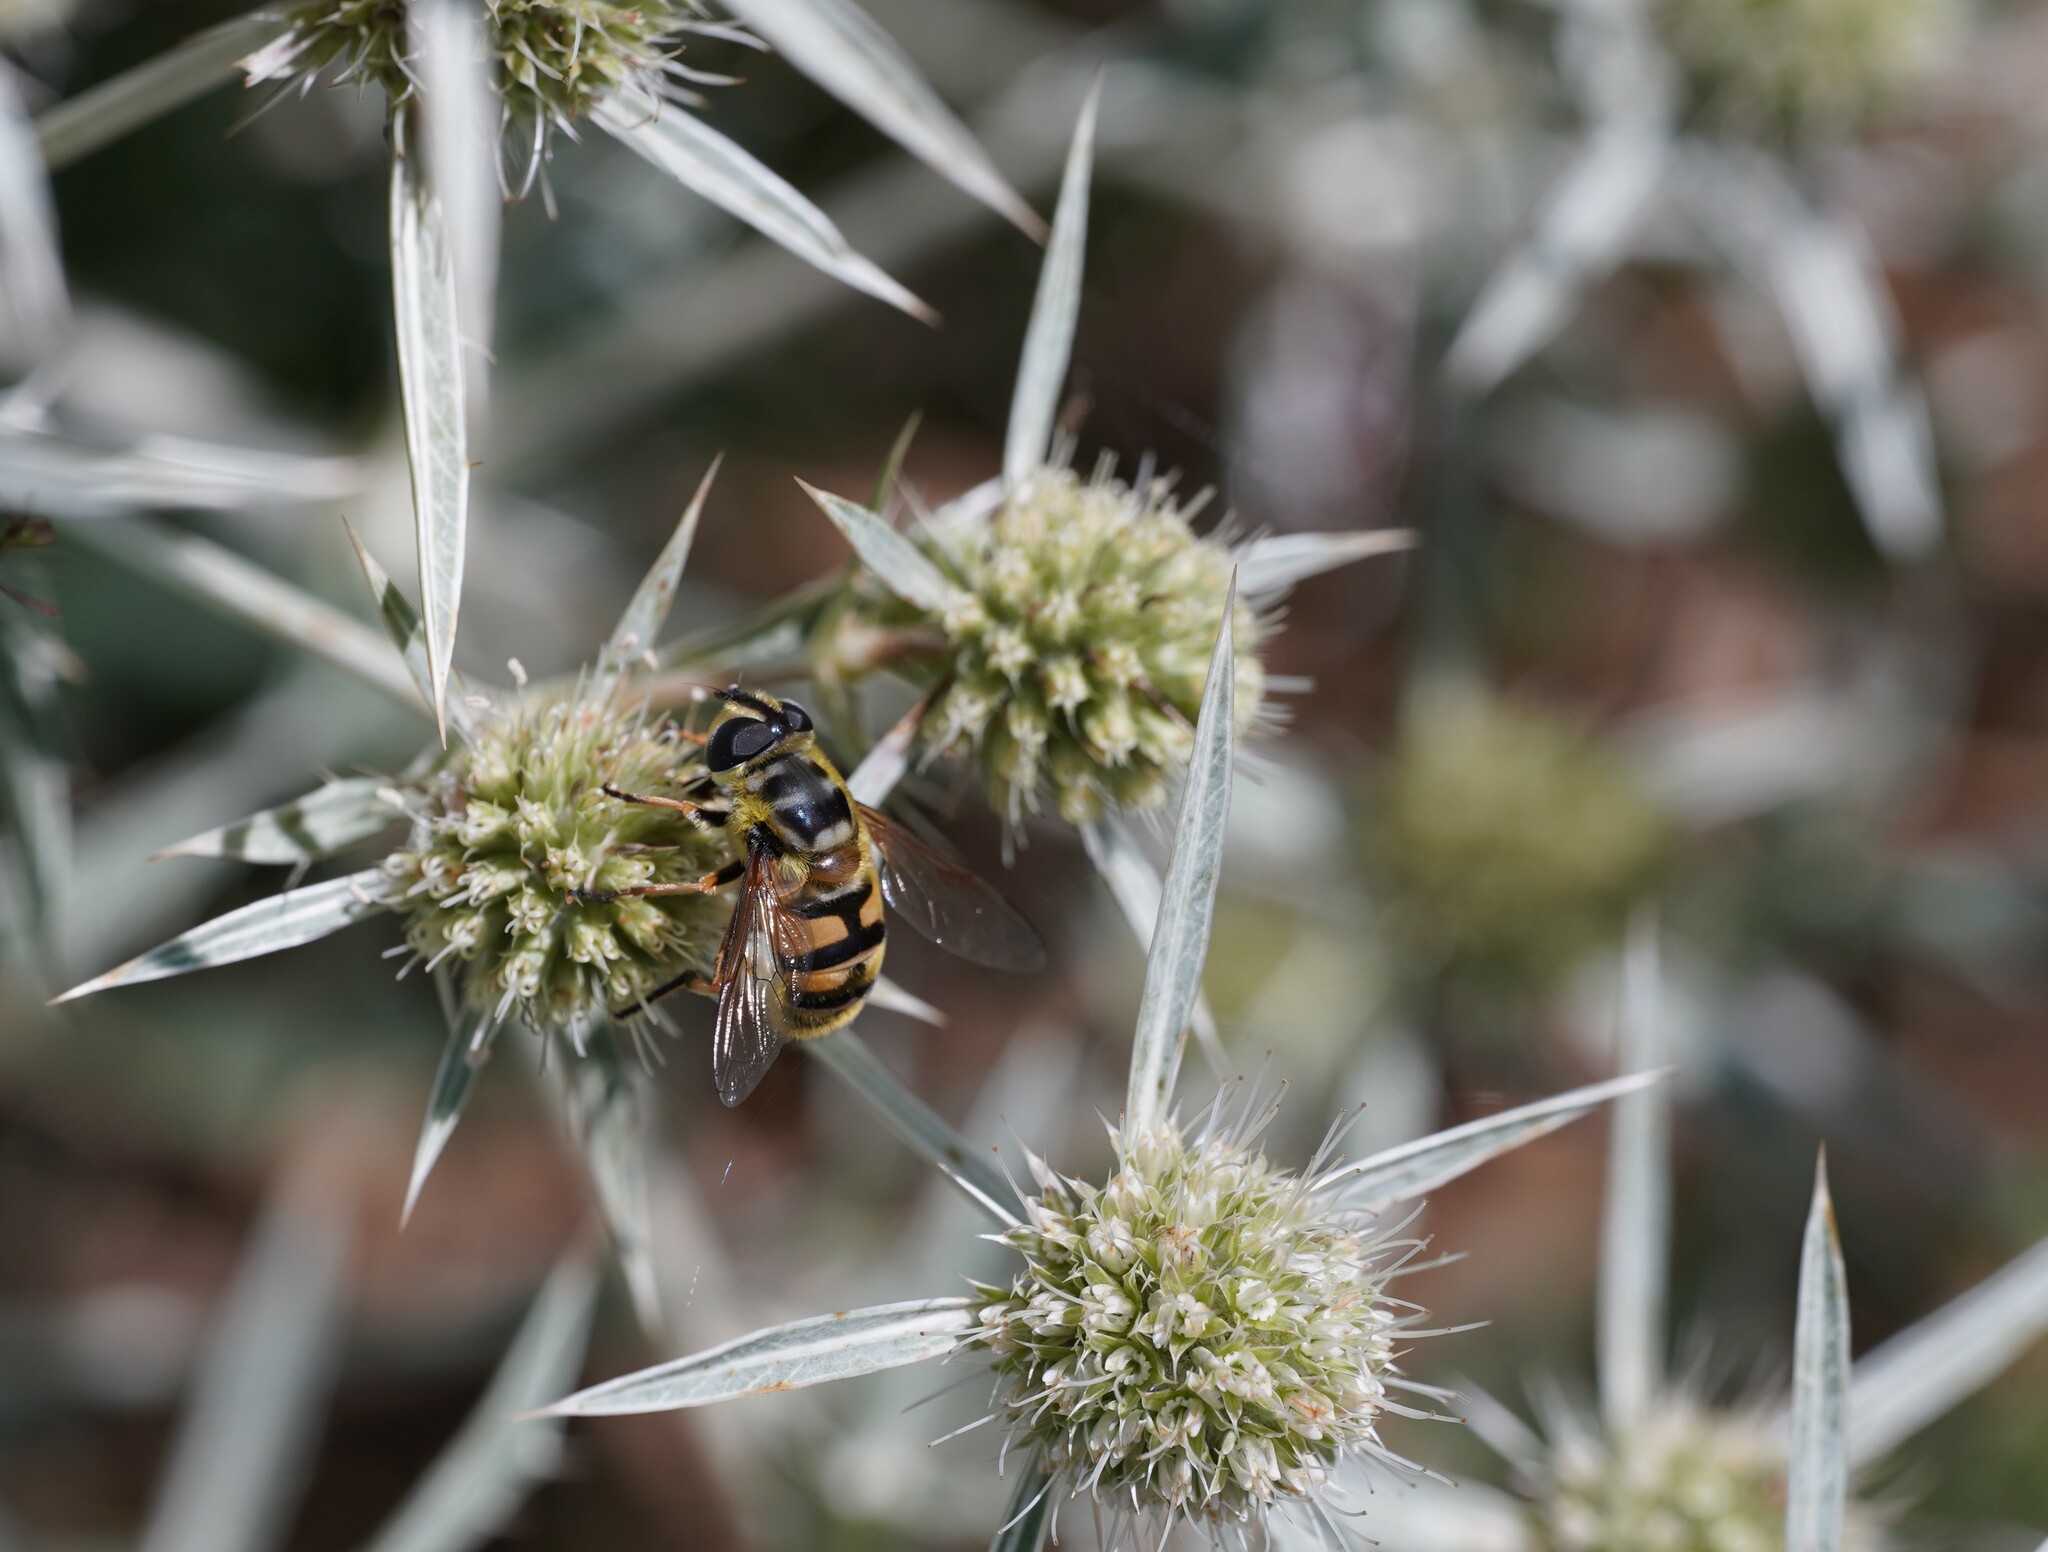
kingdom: Animalia
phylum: Arthropoda
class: Insecta
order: Diptera
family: Syrphidae
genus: Myathropa
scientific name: Myathropa florea
